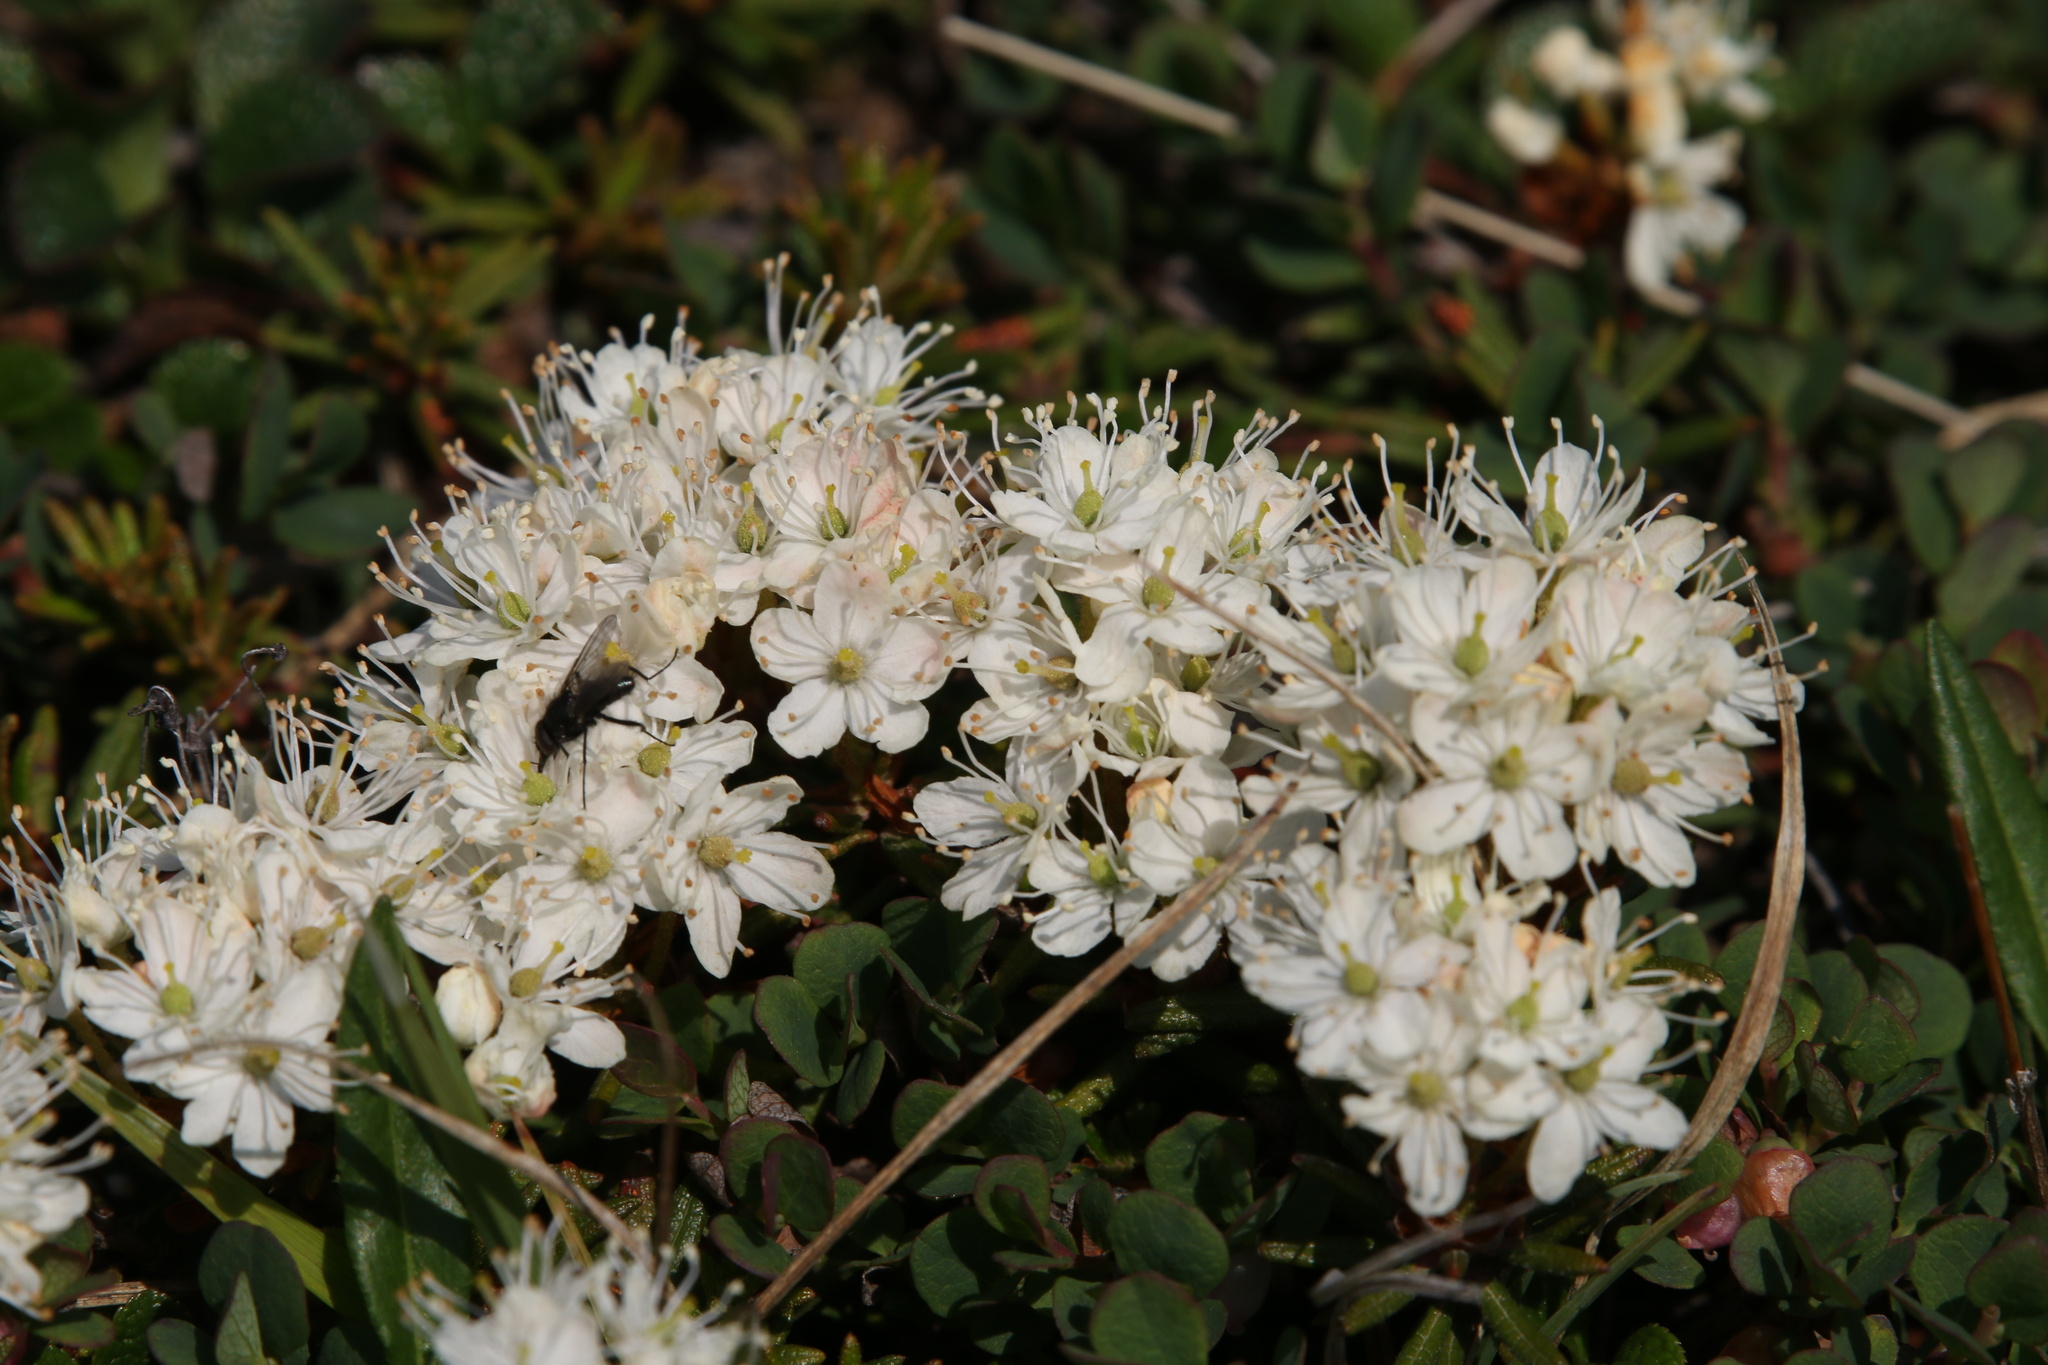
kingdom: Plantae
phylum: Tracheophyta
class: Magnoliopsida
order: Ericales
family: Ericaceae
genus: Rhododendron
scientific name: Rhododendron tomentosum
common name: Marsh labrador tea
